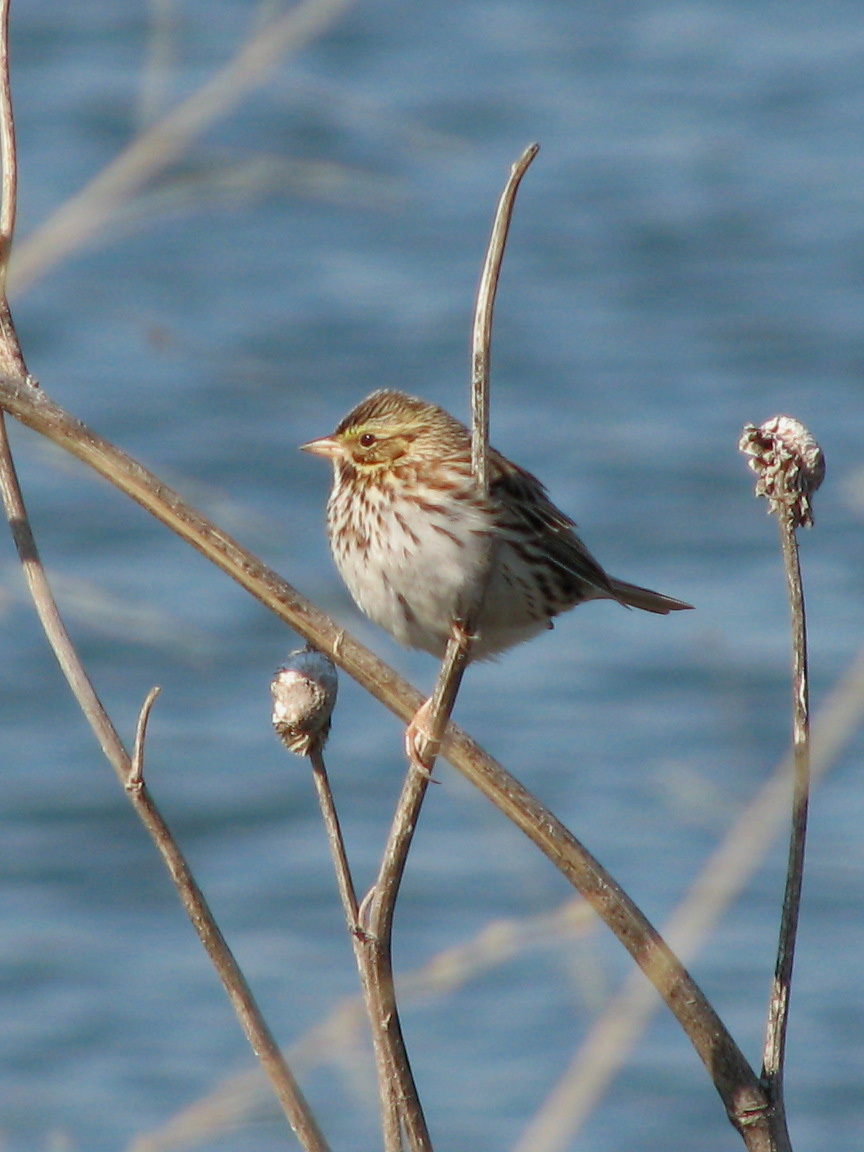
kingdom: Animalia
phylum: Chordata
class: Aves
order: Passeriformes
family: Passerellidae
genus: Passerculus
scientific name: Passerculus sandwichensis
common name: Savannah sparrow
